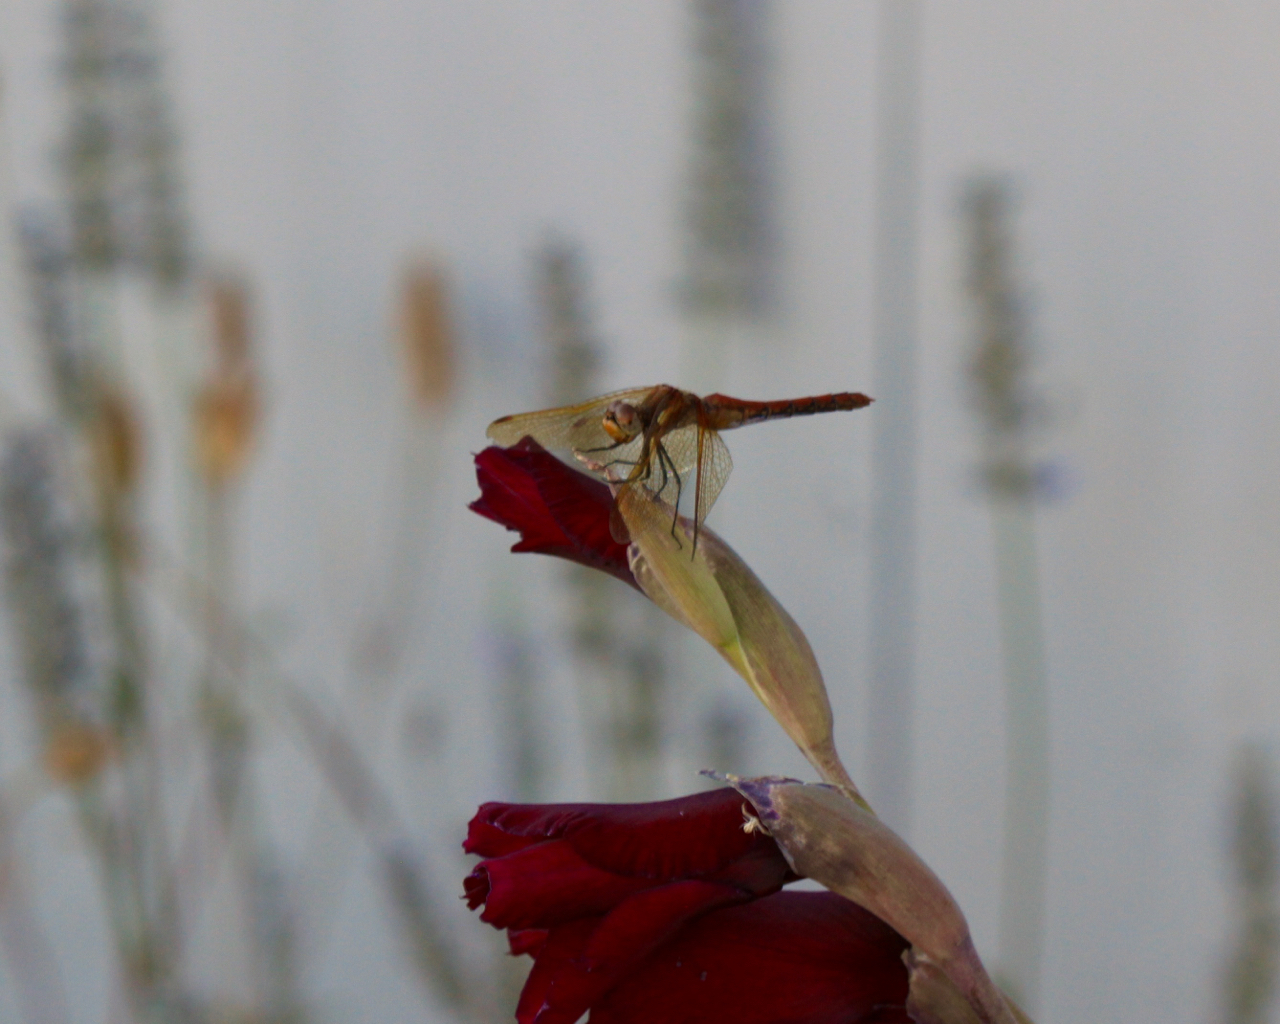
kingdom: Animalia
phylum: Arthropoda
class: Insecta
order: Odonata
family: Libellulidae
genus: Sympetrum
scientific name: Sympetrum madidum
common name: Red-veined meadowhawk
